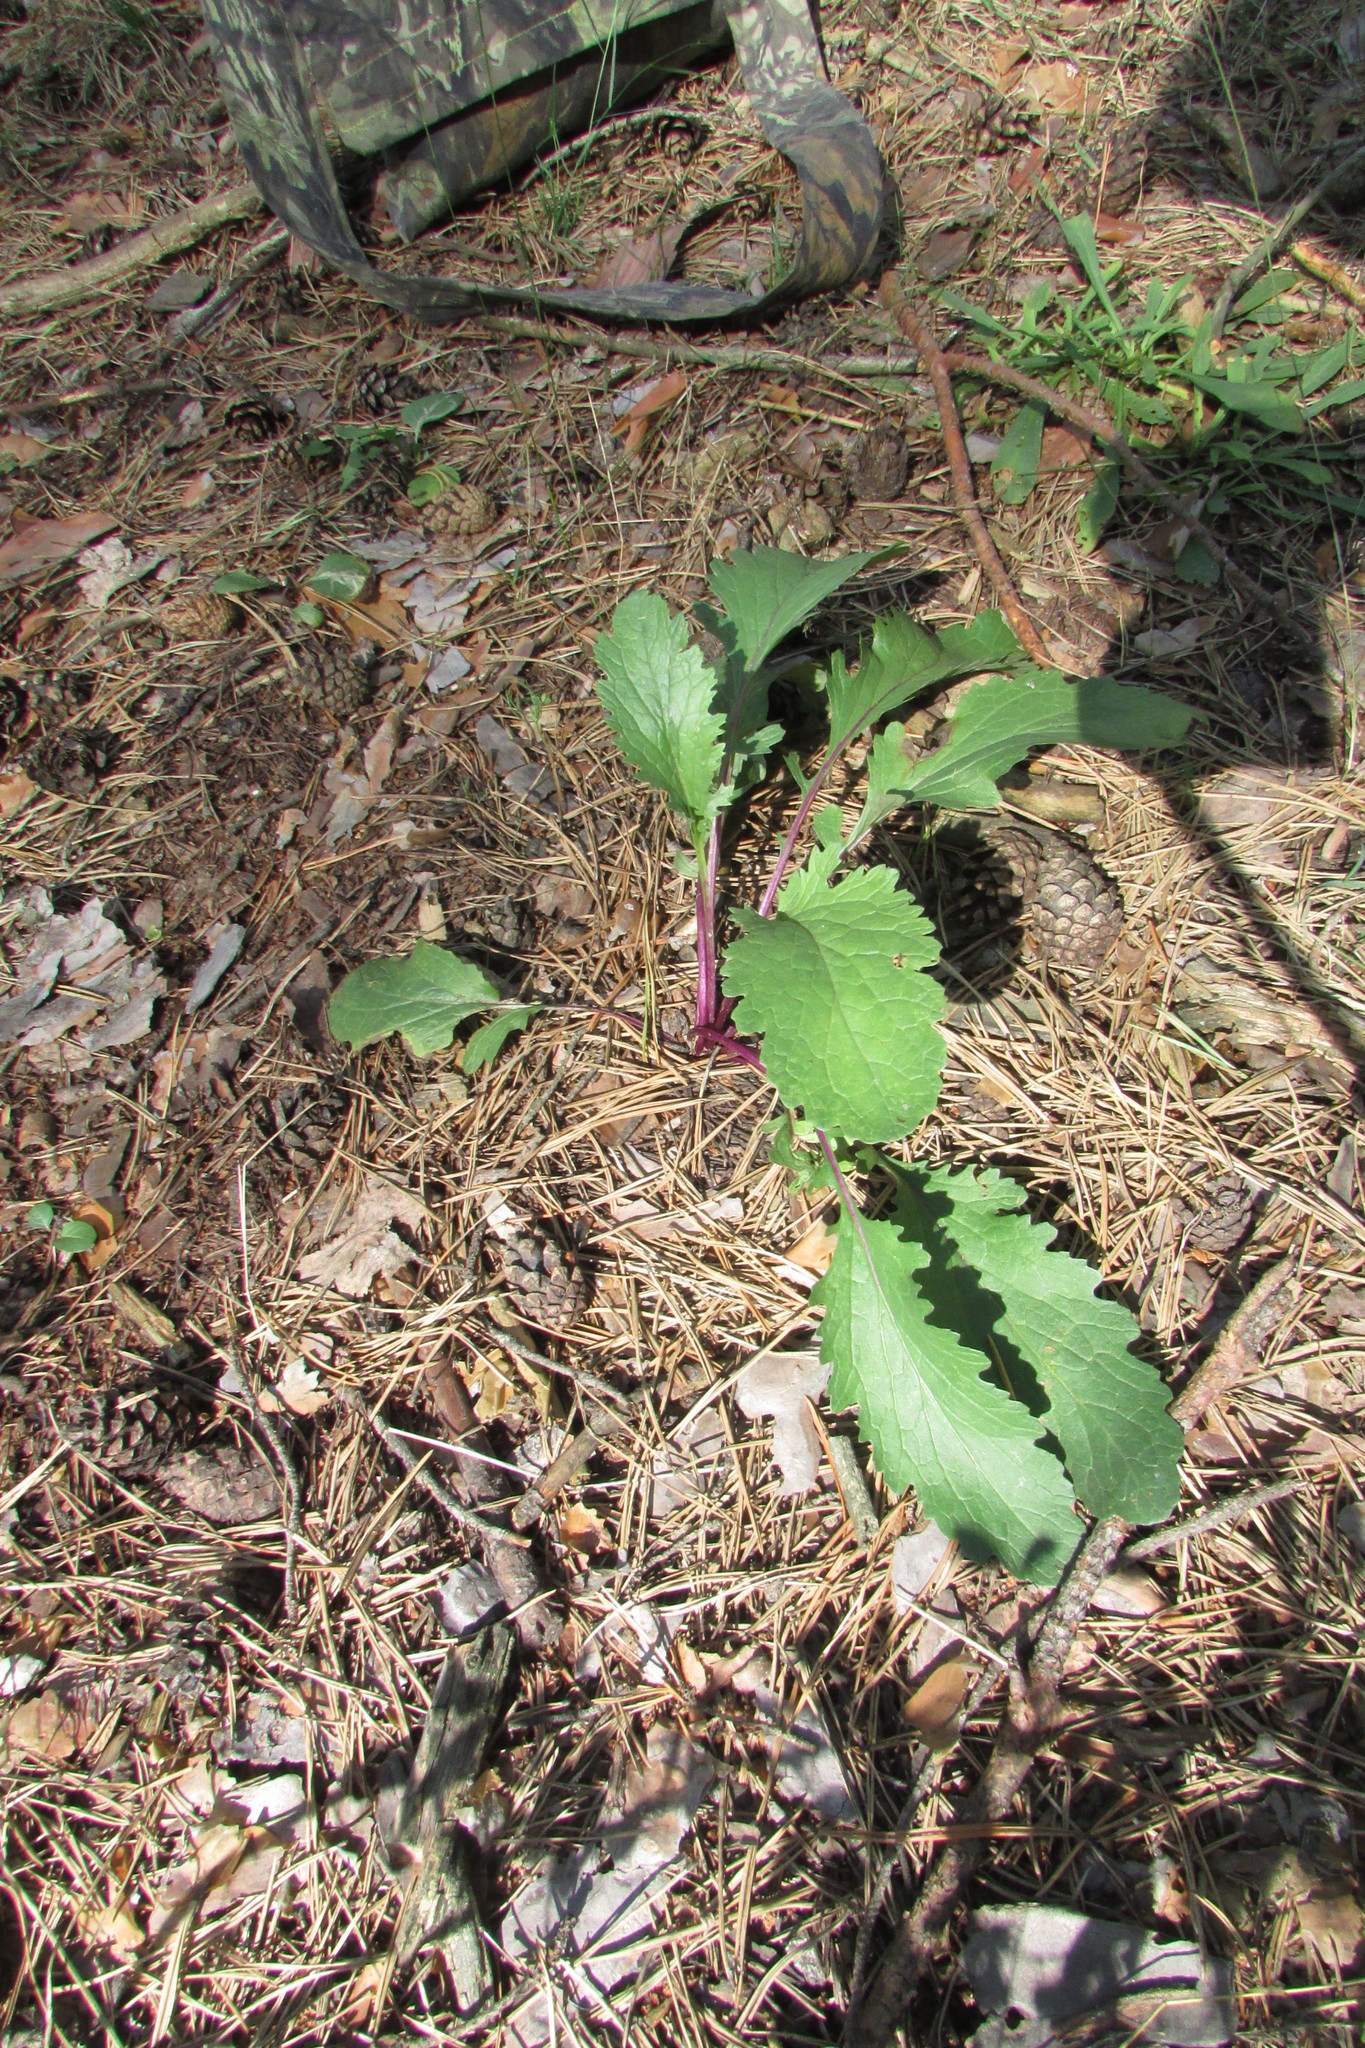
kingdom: Plantae
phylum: Tracheophyta
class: Magnoliopsida
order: Asterales
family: Asteraceae
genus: Jacobaea
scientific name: Jacobaea vulgaris
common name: Stinking willie
